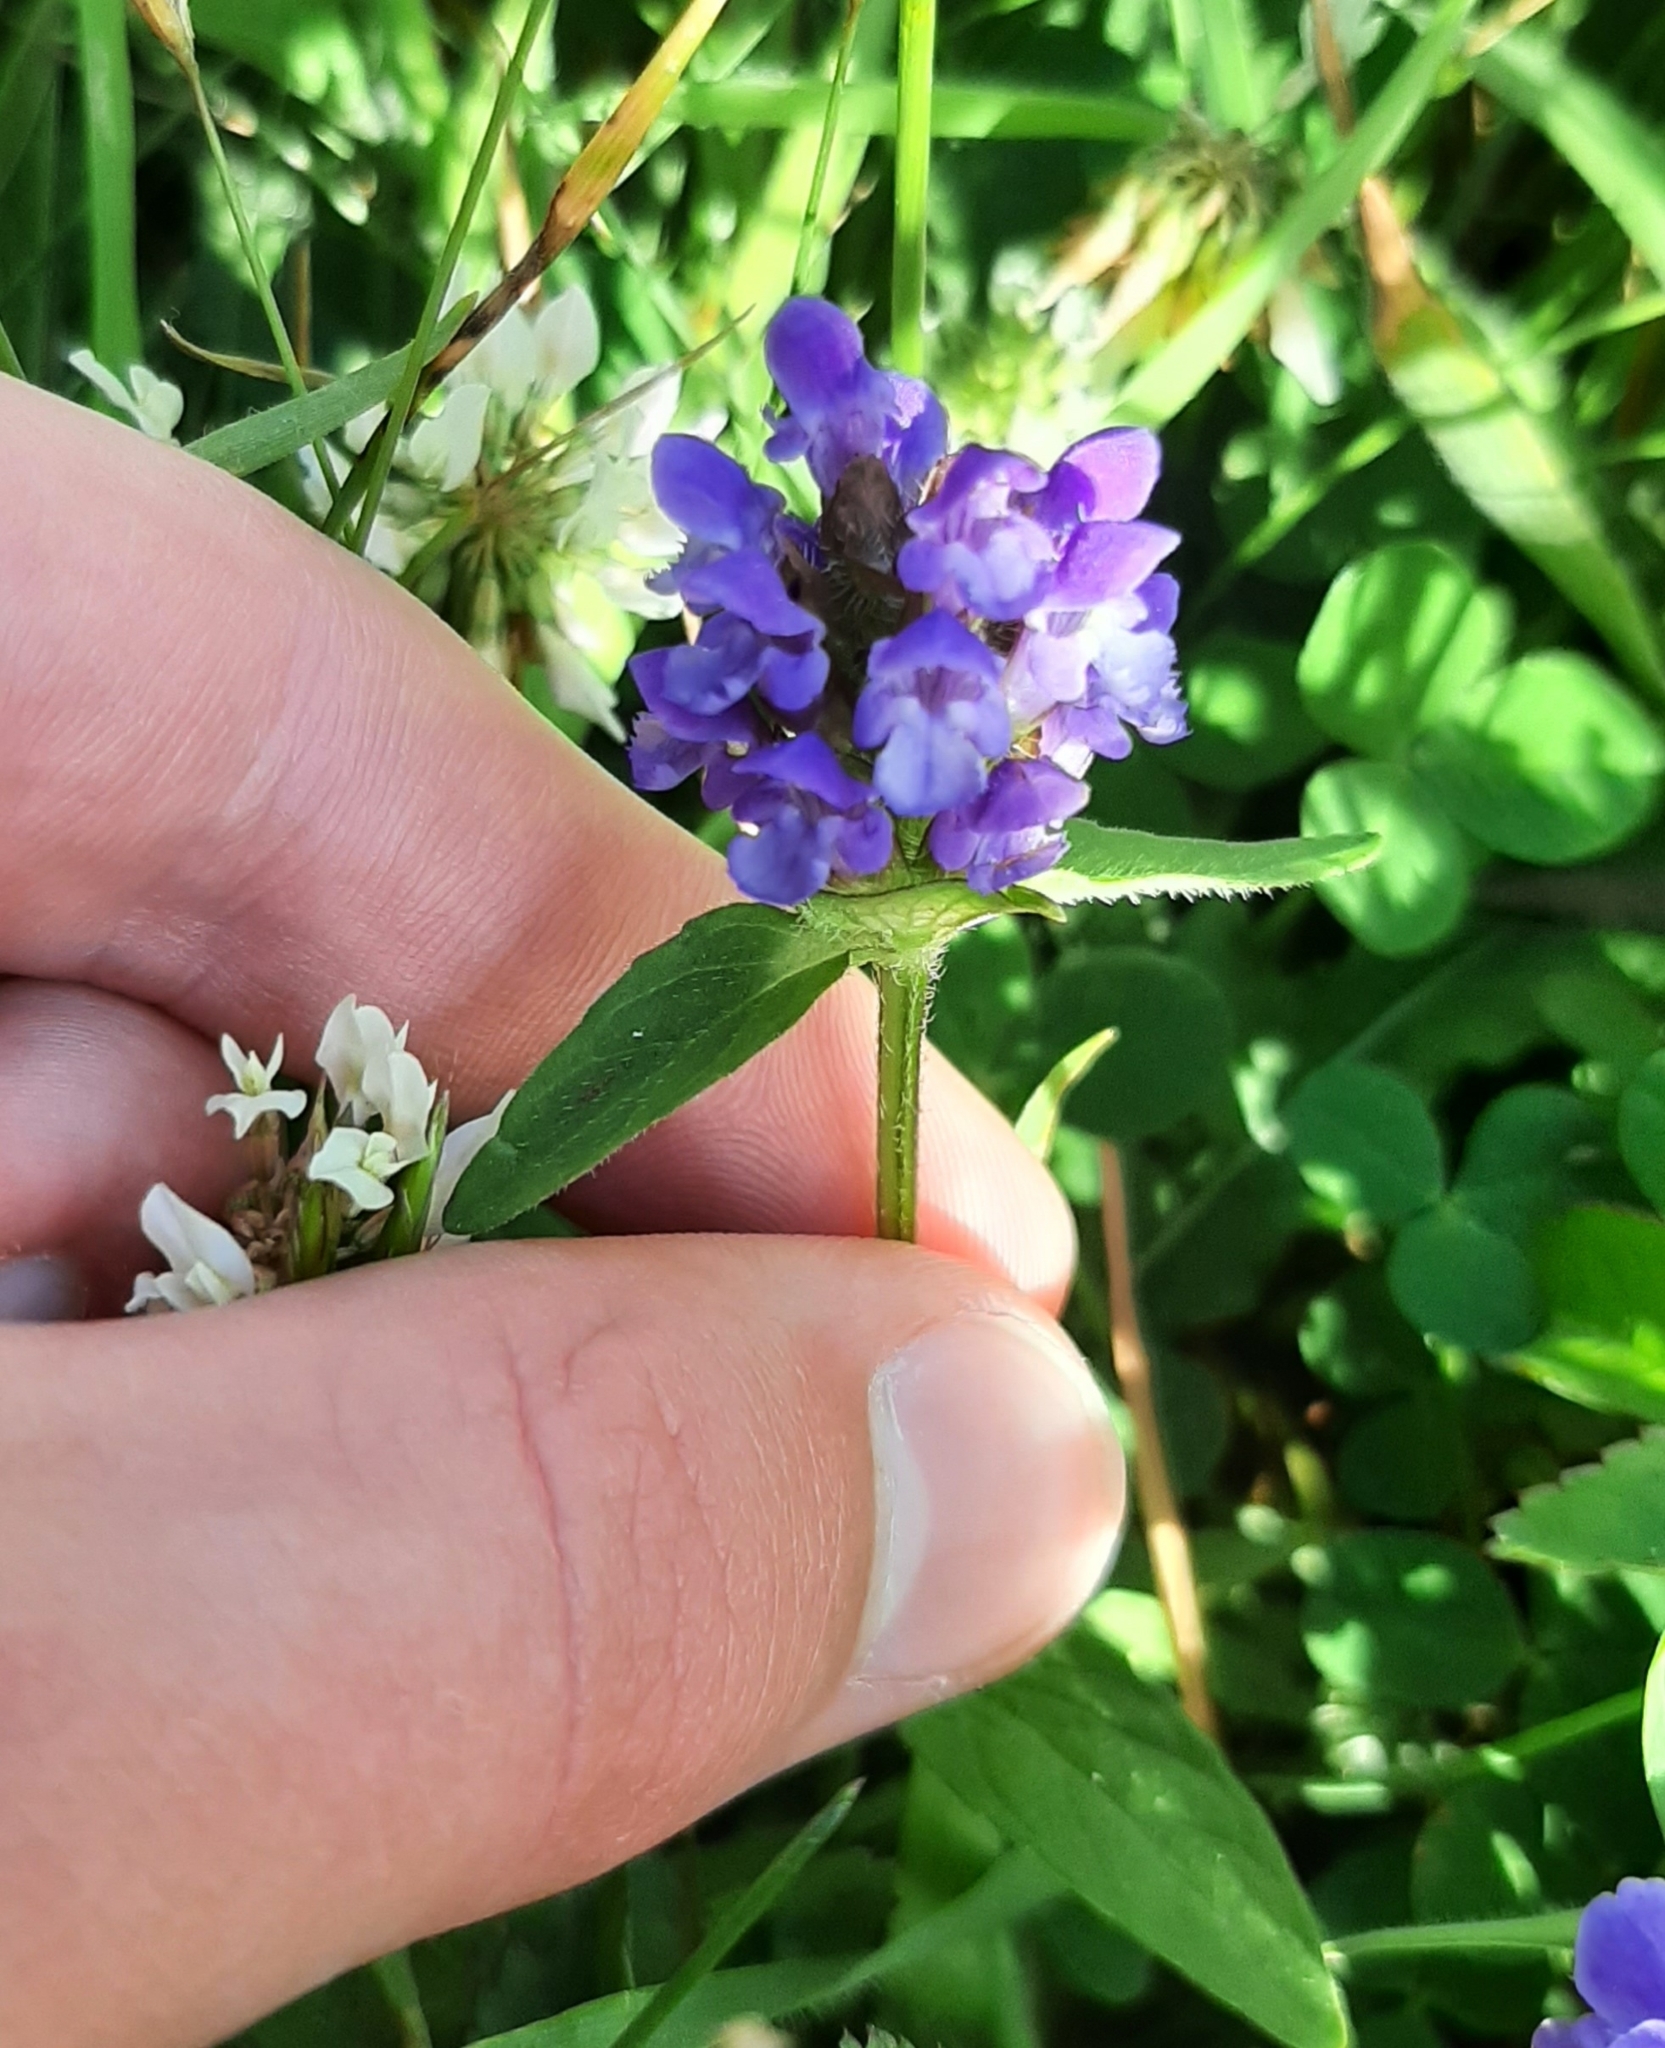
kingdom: Plantae
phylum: Tracheophyta
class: Magnoliopsida
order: Lamiales
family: Lamiaceae
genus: Prunella
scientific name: Prunella vulgaris
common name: Heal-all
